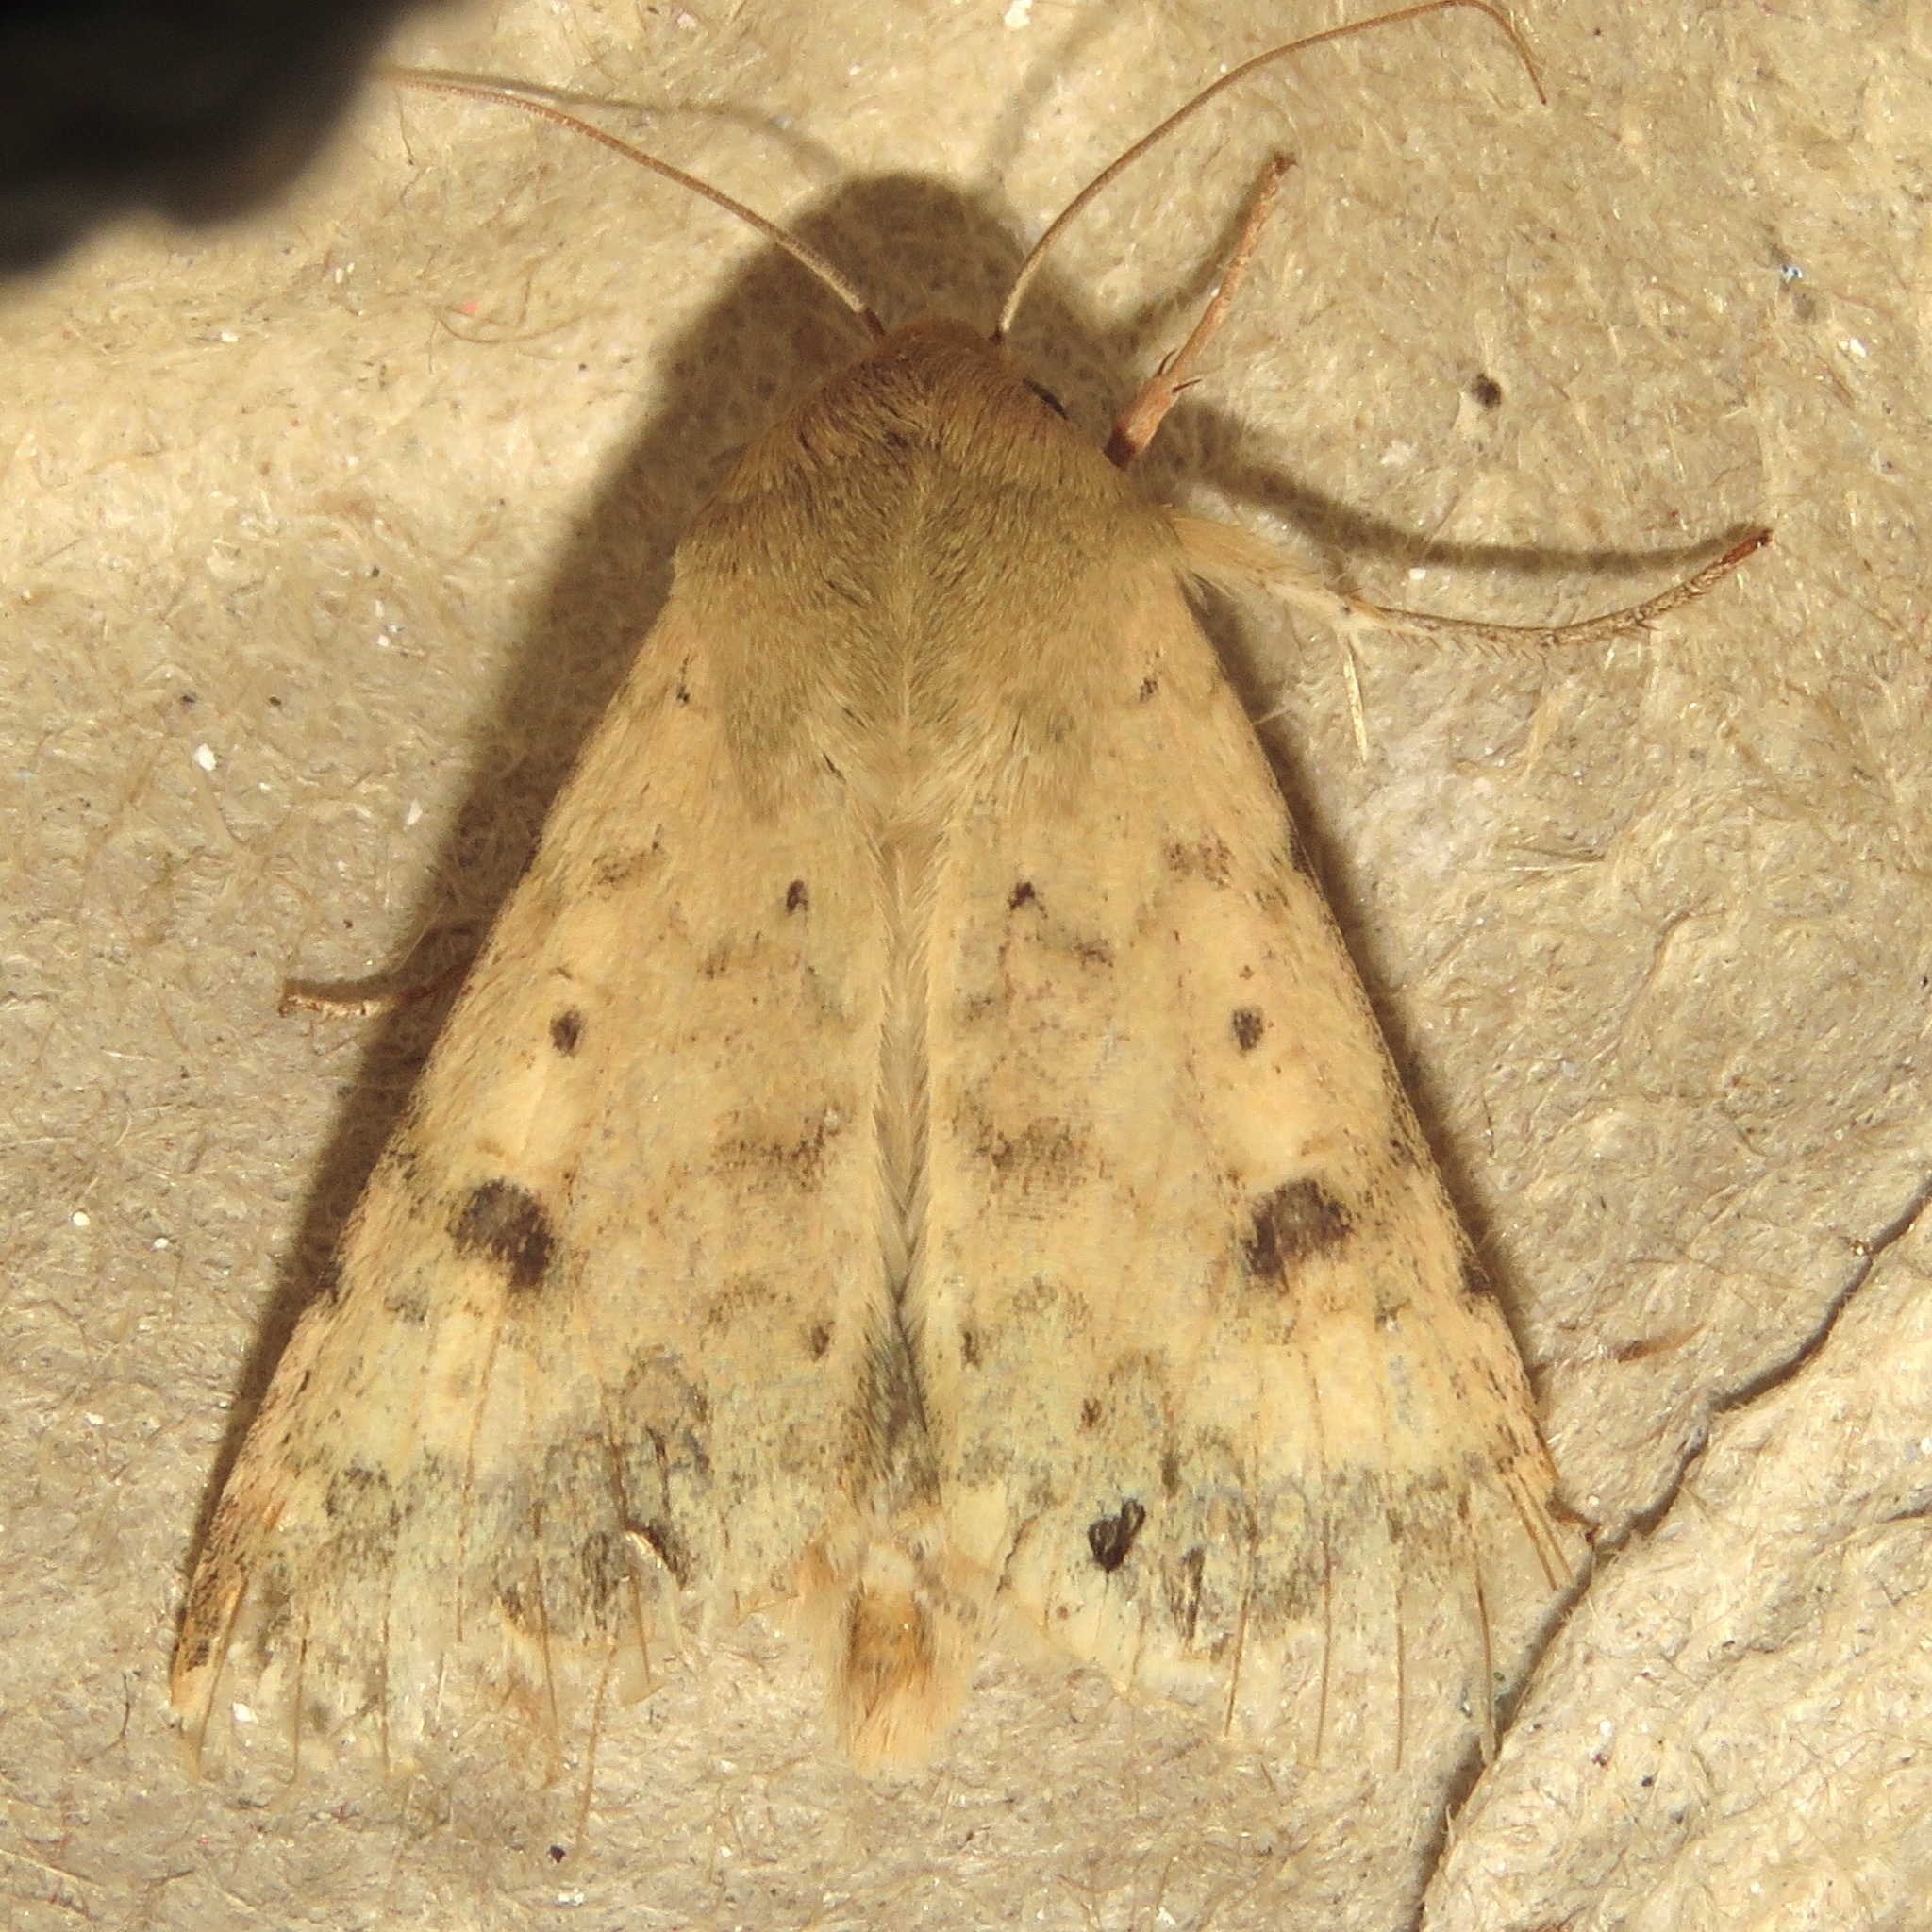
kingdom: Animalia
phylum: Arthropoda
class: Insecta
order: Lepidoptera
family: Noctuidae
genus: Helicoverpa
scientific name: Helicoverpa zea
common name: Bollworm
